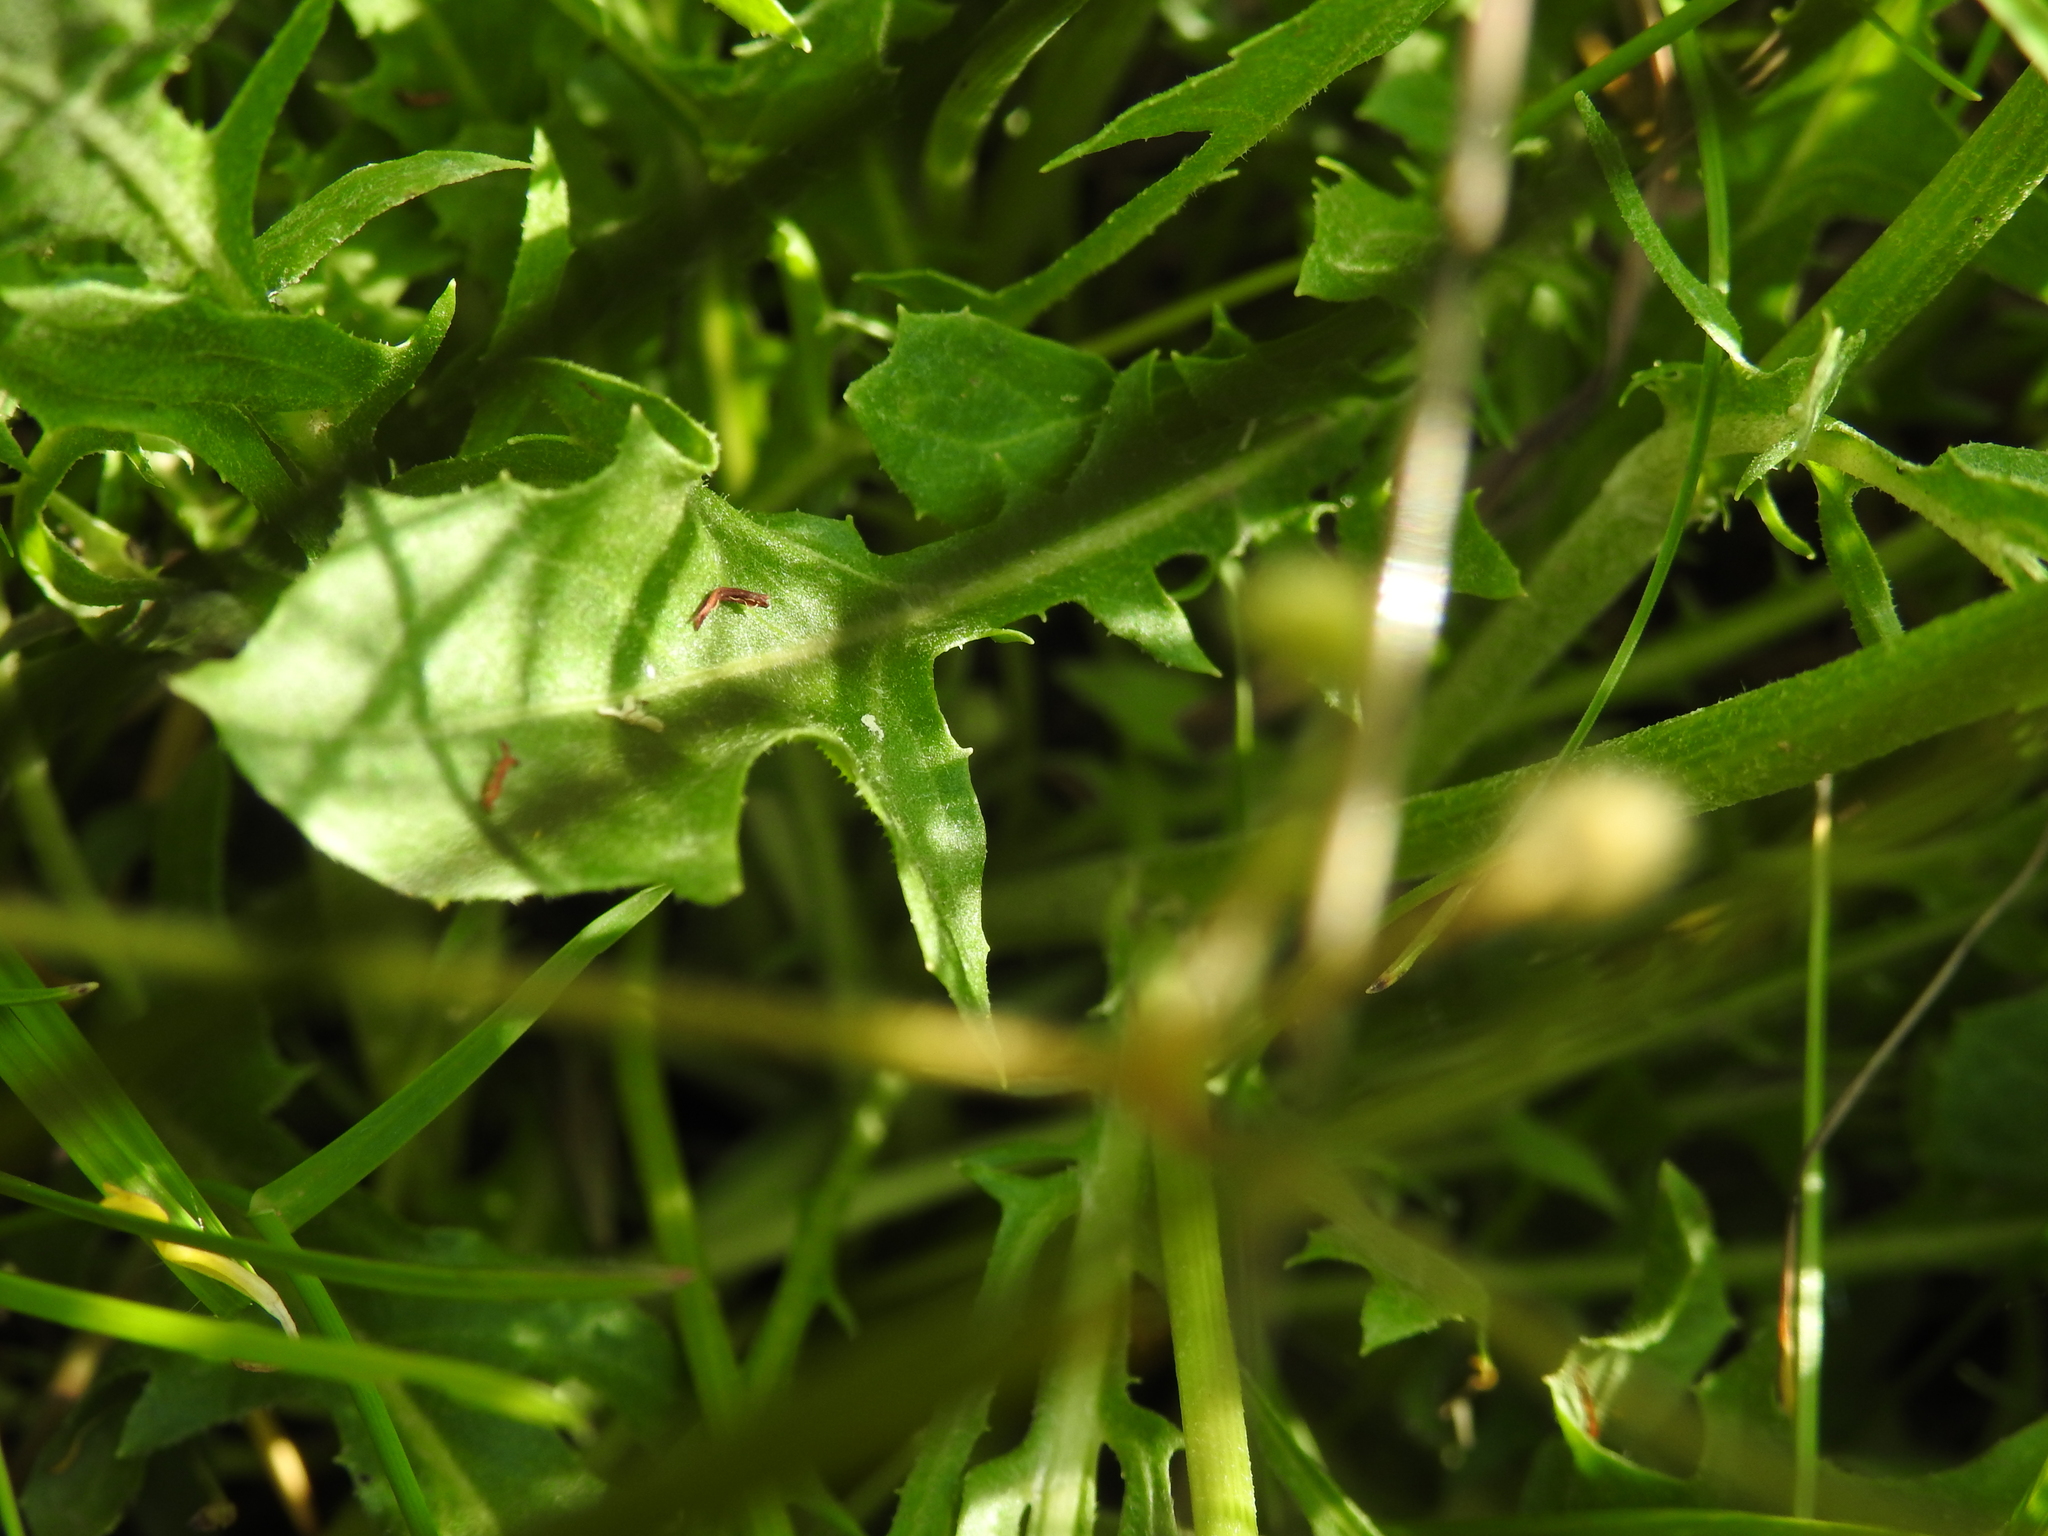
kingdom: Plantae
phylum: Tracheophyta
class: Magnoliopsida
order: Asterales
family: Asteraceae
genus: Crepis
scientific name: Crepis albida
